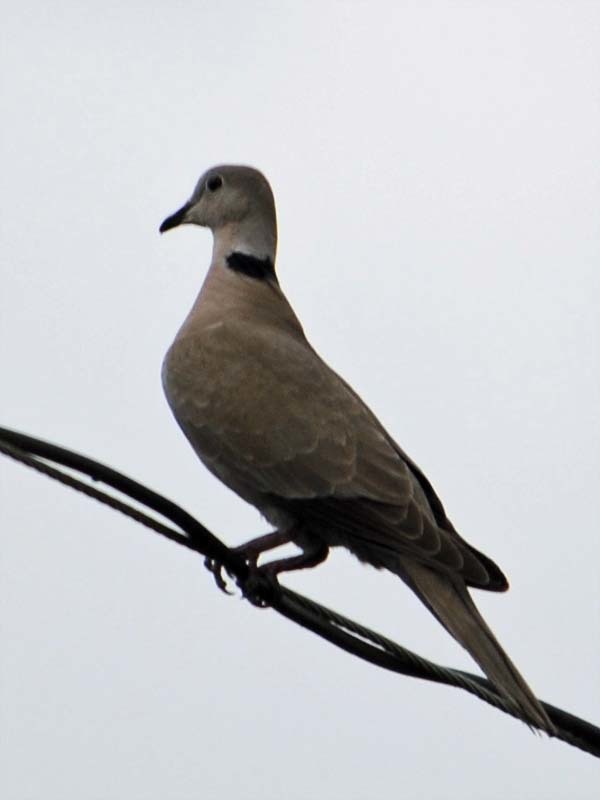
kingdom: Animalia
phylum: Chordata
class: Aves
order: Columbiformes
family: Columbidae
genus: Streptopelia
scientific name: Streptopelia decaocto
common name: Eurasian collared dove
